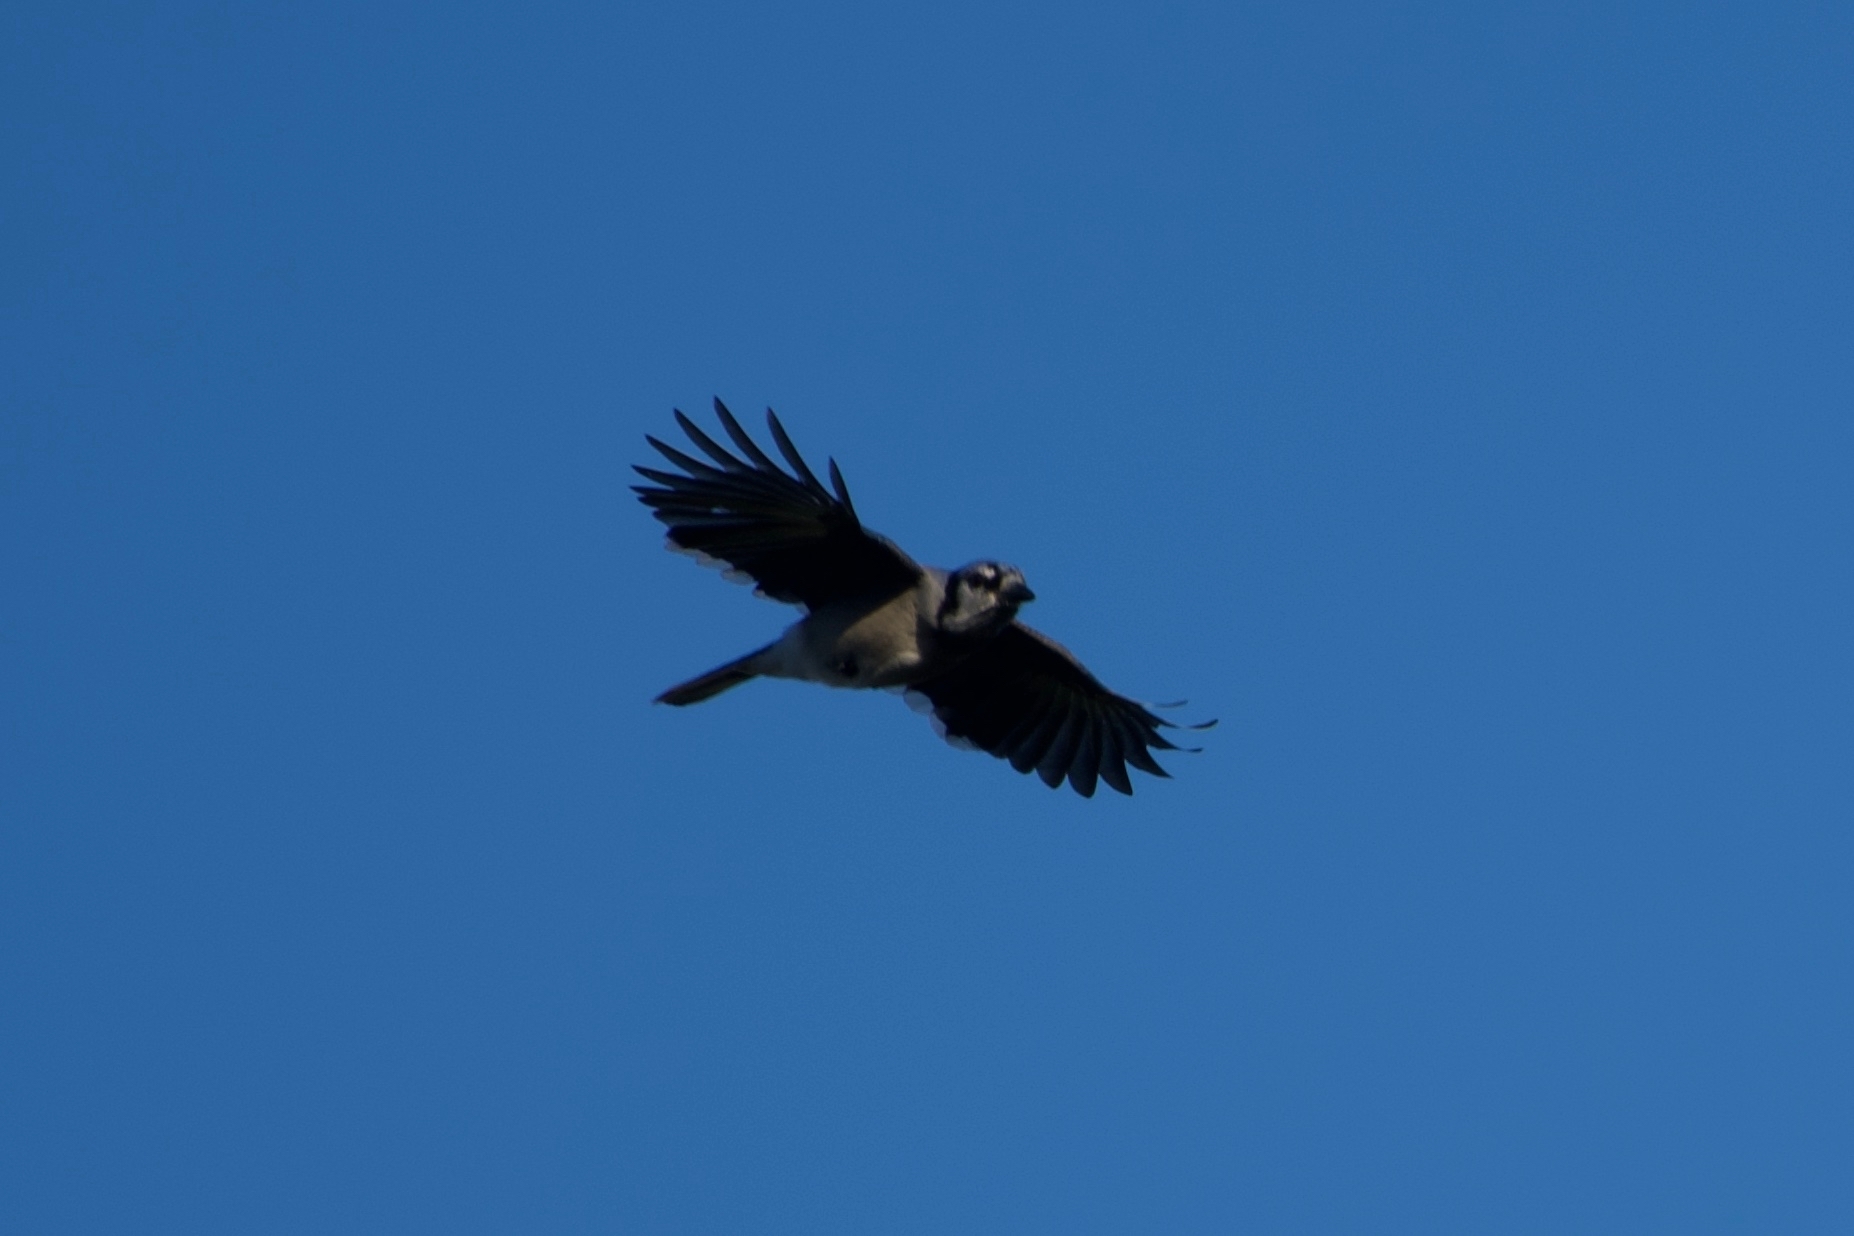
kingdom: Animalia
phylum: Chordata
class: Aves
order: Passeriformes
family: Corvidae
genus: Cyanocitta
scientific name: Cyanocitta cristata
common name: Blue jay
